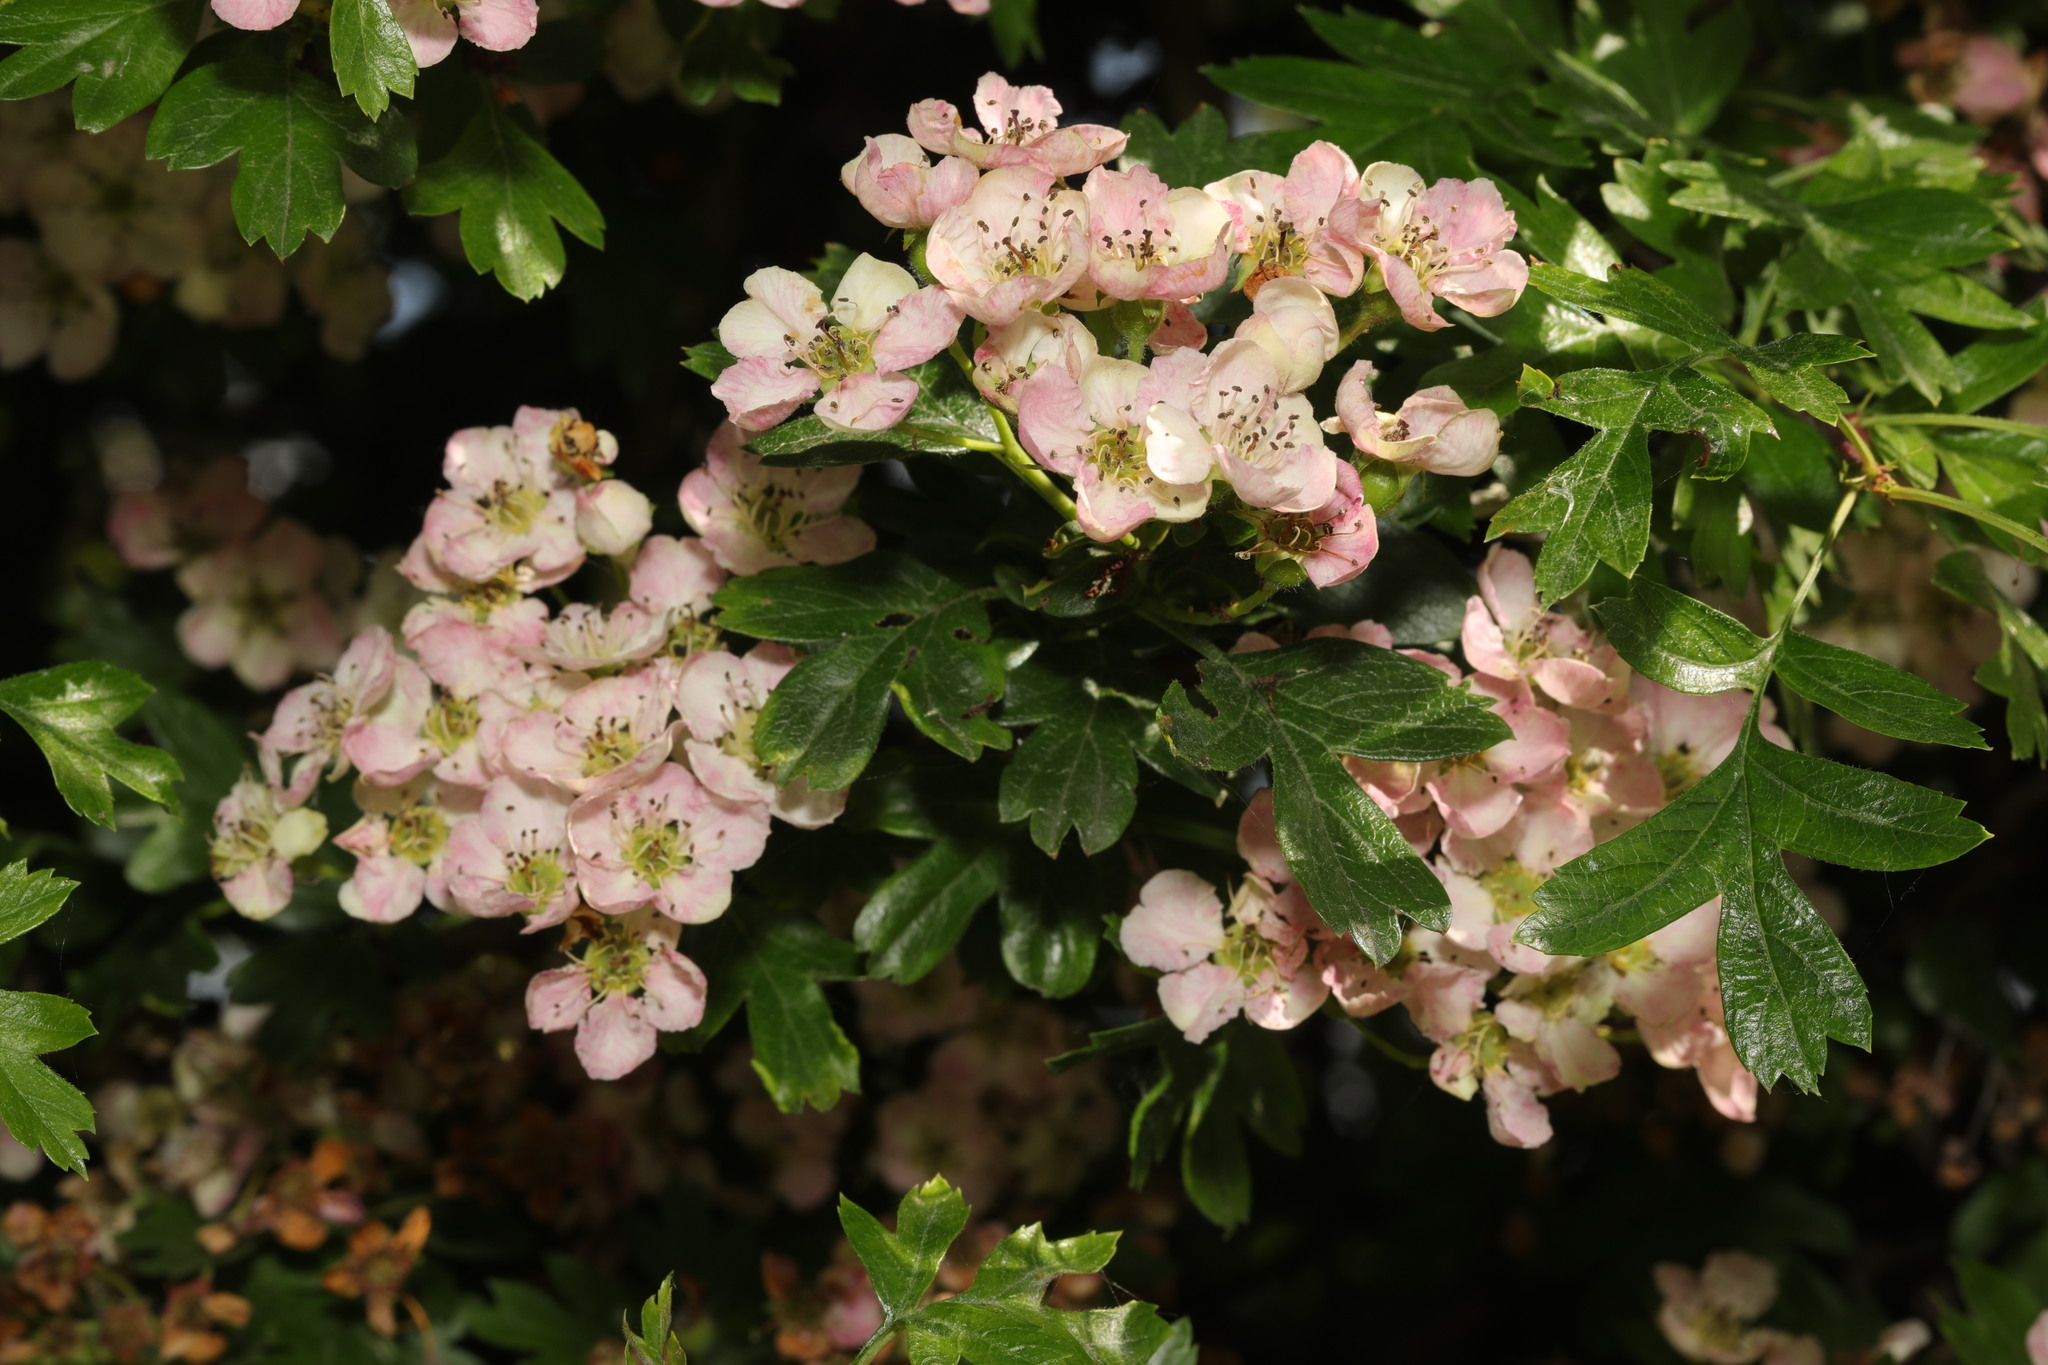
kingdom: Plantae
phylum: Tracheophyta
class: Magnoliopsida
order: Rosales
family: Rosaceae
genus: Crataegus
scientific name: Crataegus monogyna
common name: Hawthorn
